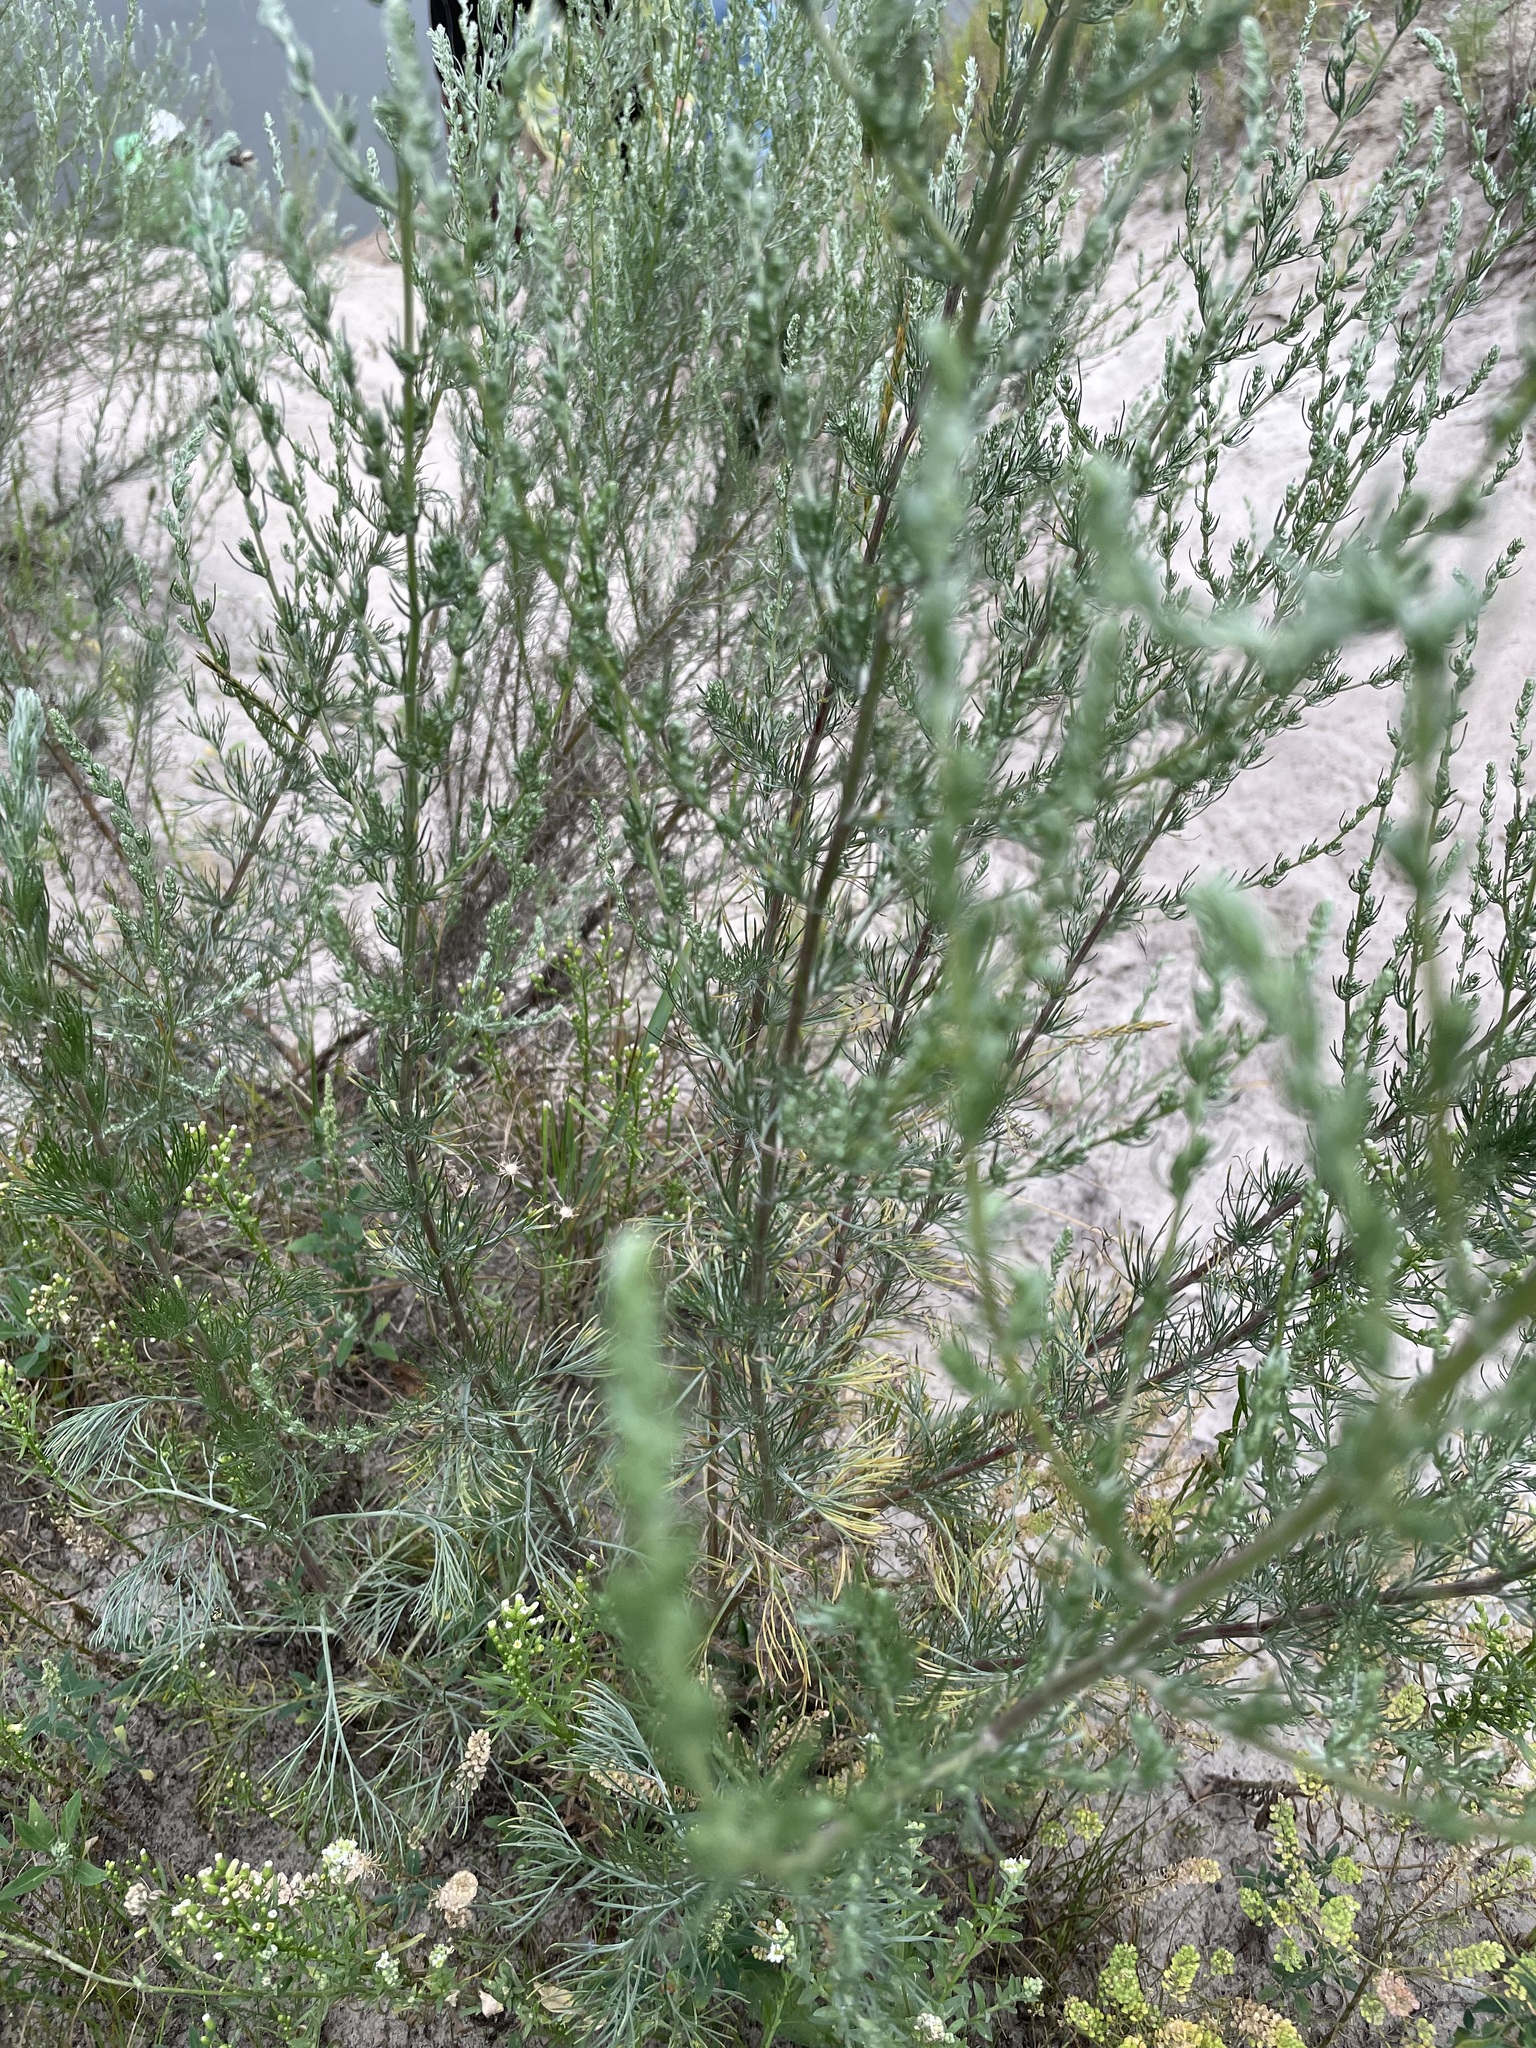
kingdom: Plantae
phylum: Tracheophyta
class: Magnoliopsida
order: Asterales
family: Asteraceae
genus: Artemisia
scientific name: Artemisia campestris
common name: Field wormwood
